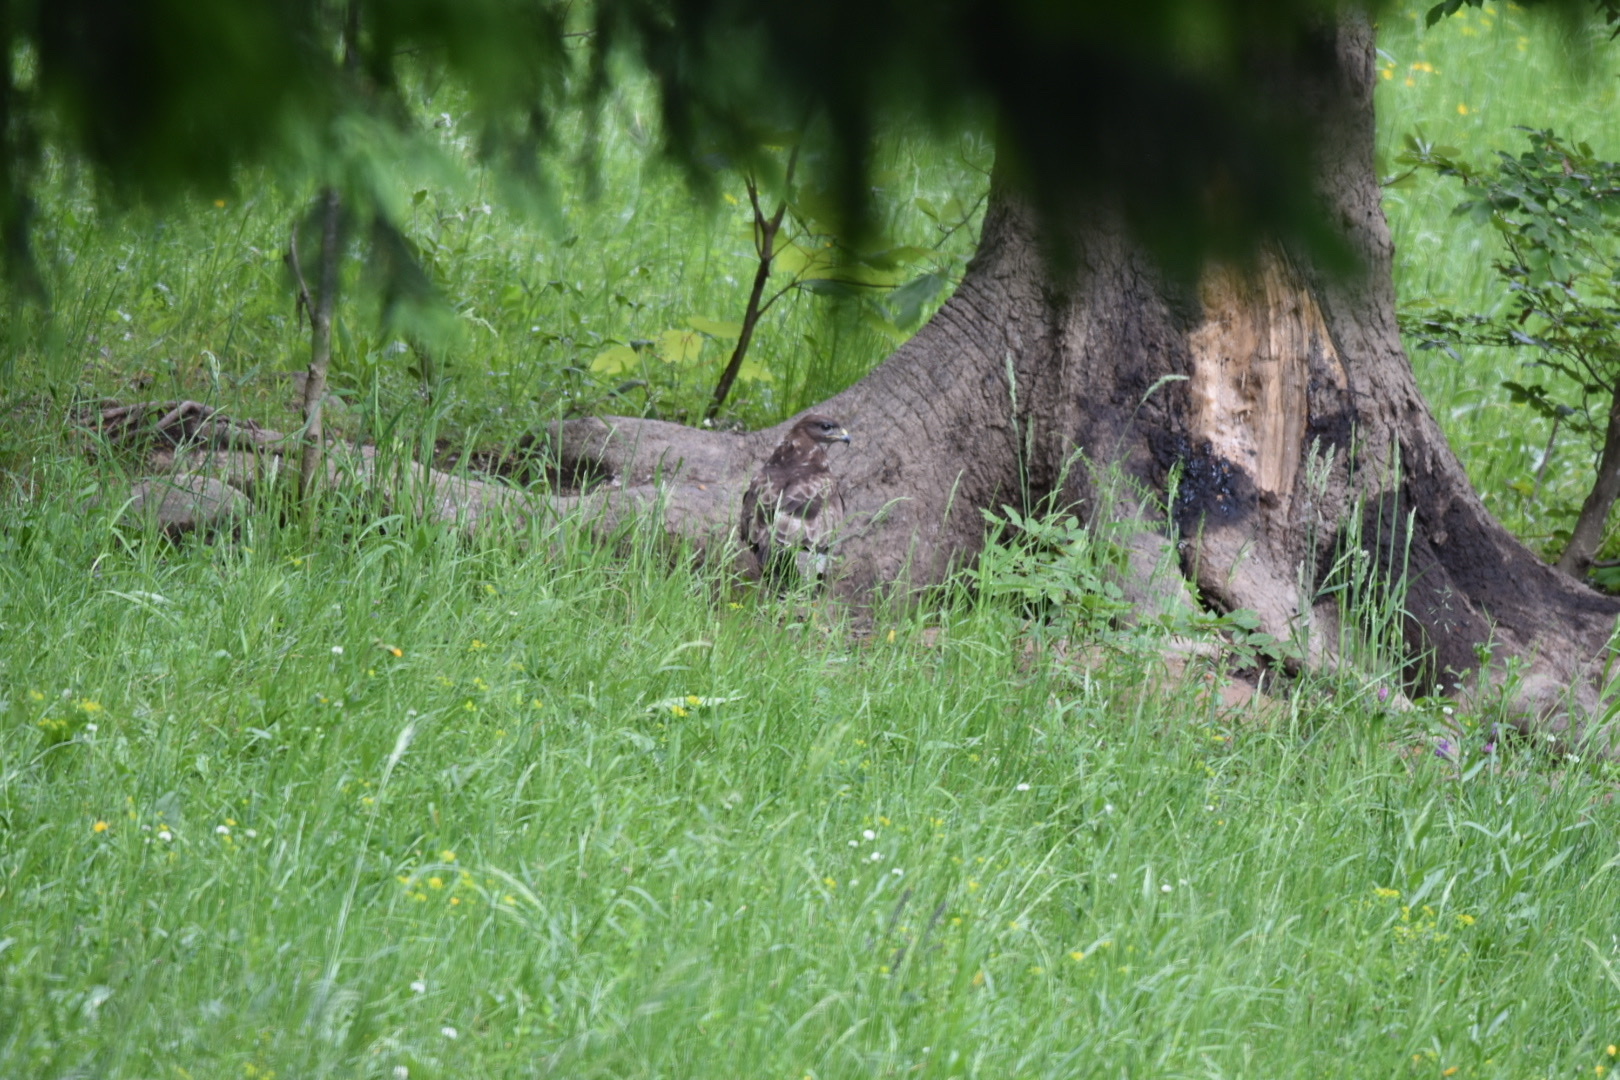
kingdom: Animalia
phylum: Chordata
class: Aves
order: Accipitriformes
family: Accipitridae
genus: Buteo
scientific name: Buteo buteo
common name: Common buzzard
